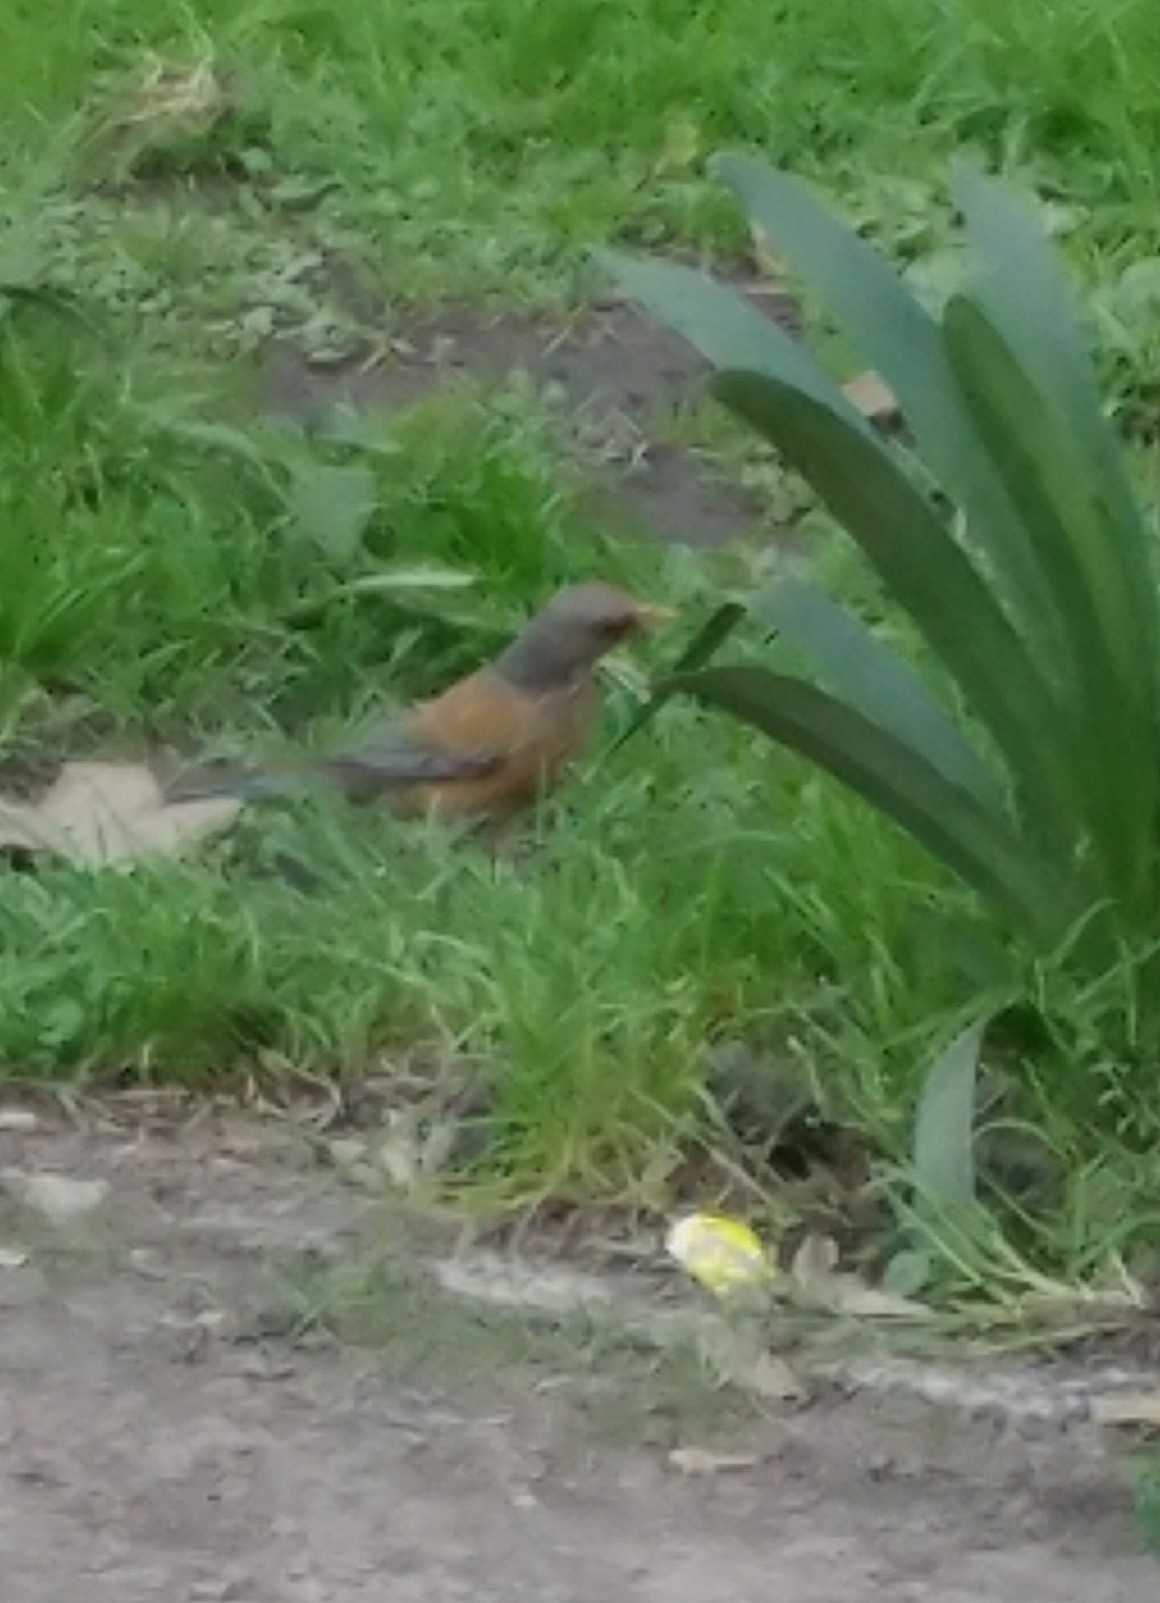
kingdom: Animalia
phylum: Chordata
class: Aves
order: Passeriformes
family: Turdidae
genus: Turdus
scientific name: Turdus rufopalliatus
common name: Rufous-backed robin
